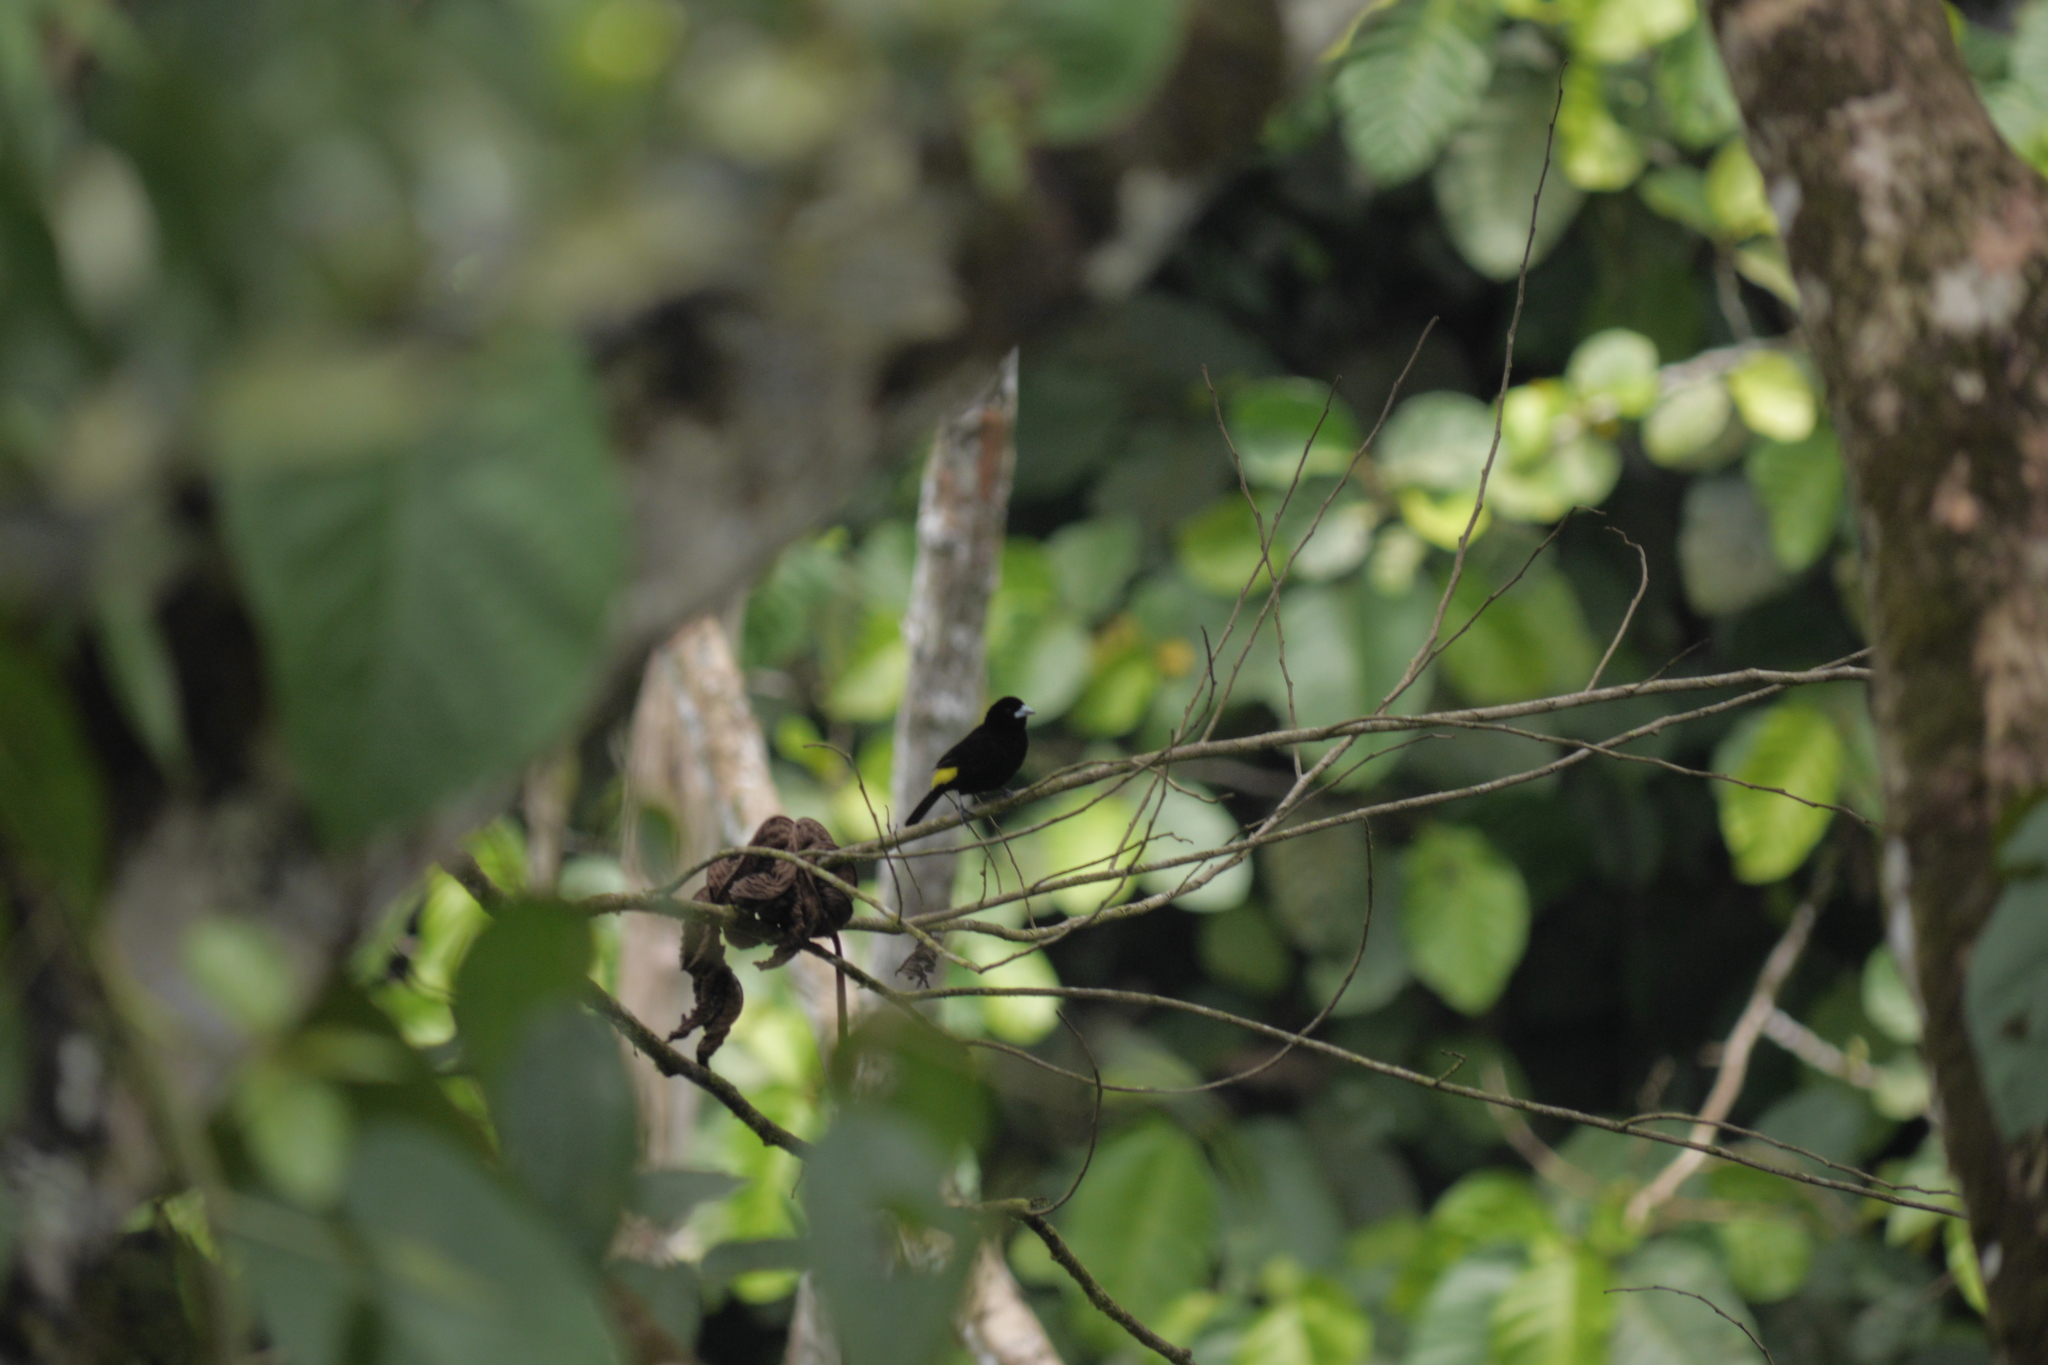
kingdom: Animalia
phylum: Chordata
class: Aves
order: Passeriformes
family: Thraupidae
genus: Ramphocelus
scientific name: Ramphocelus icteronotus
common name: Lemon-rumped tanager
